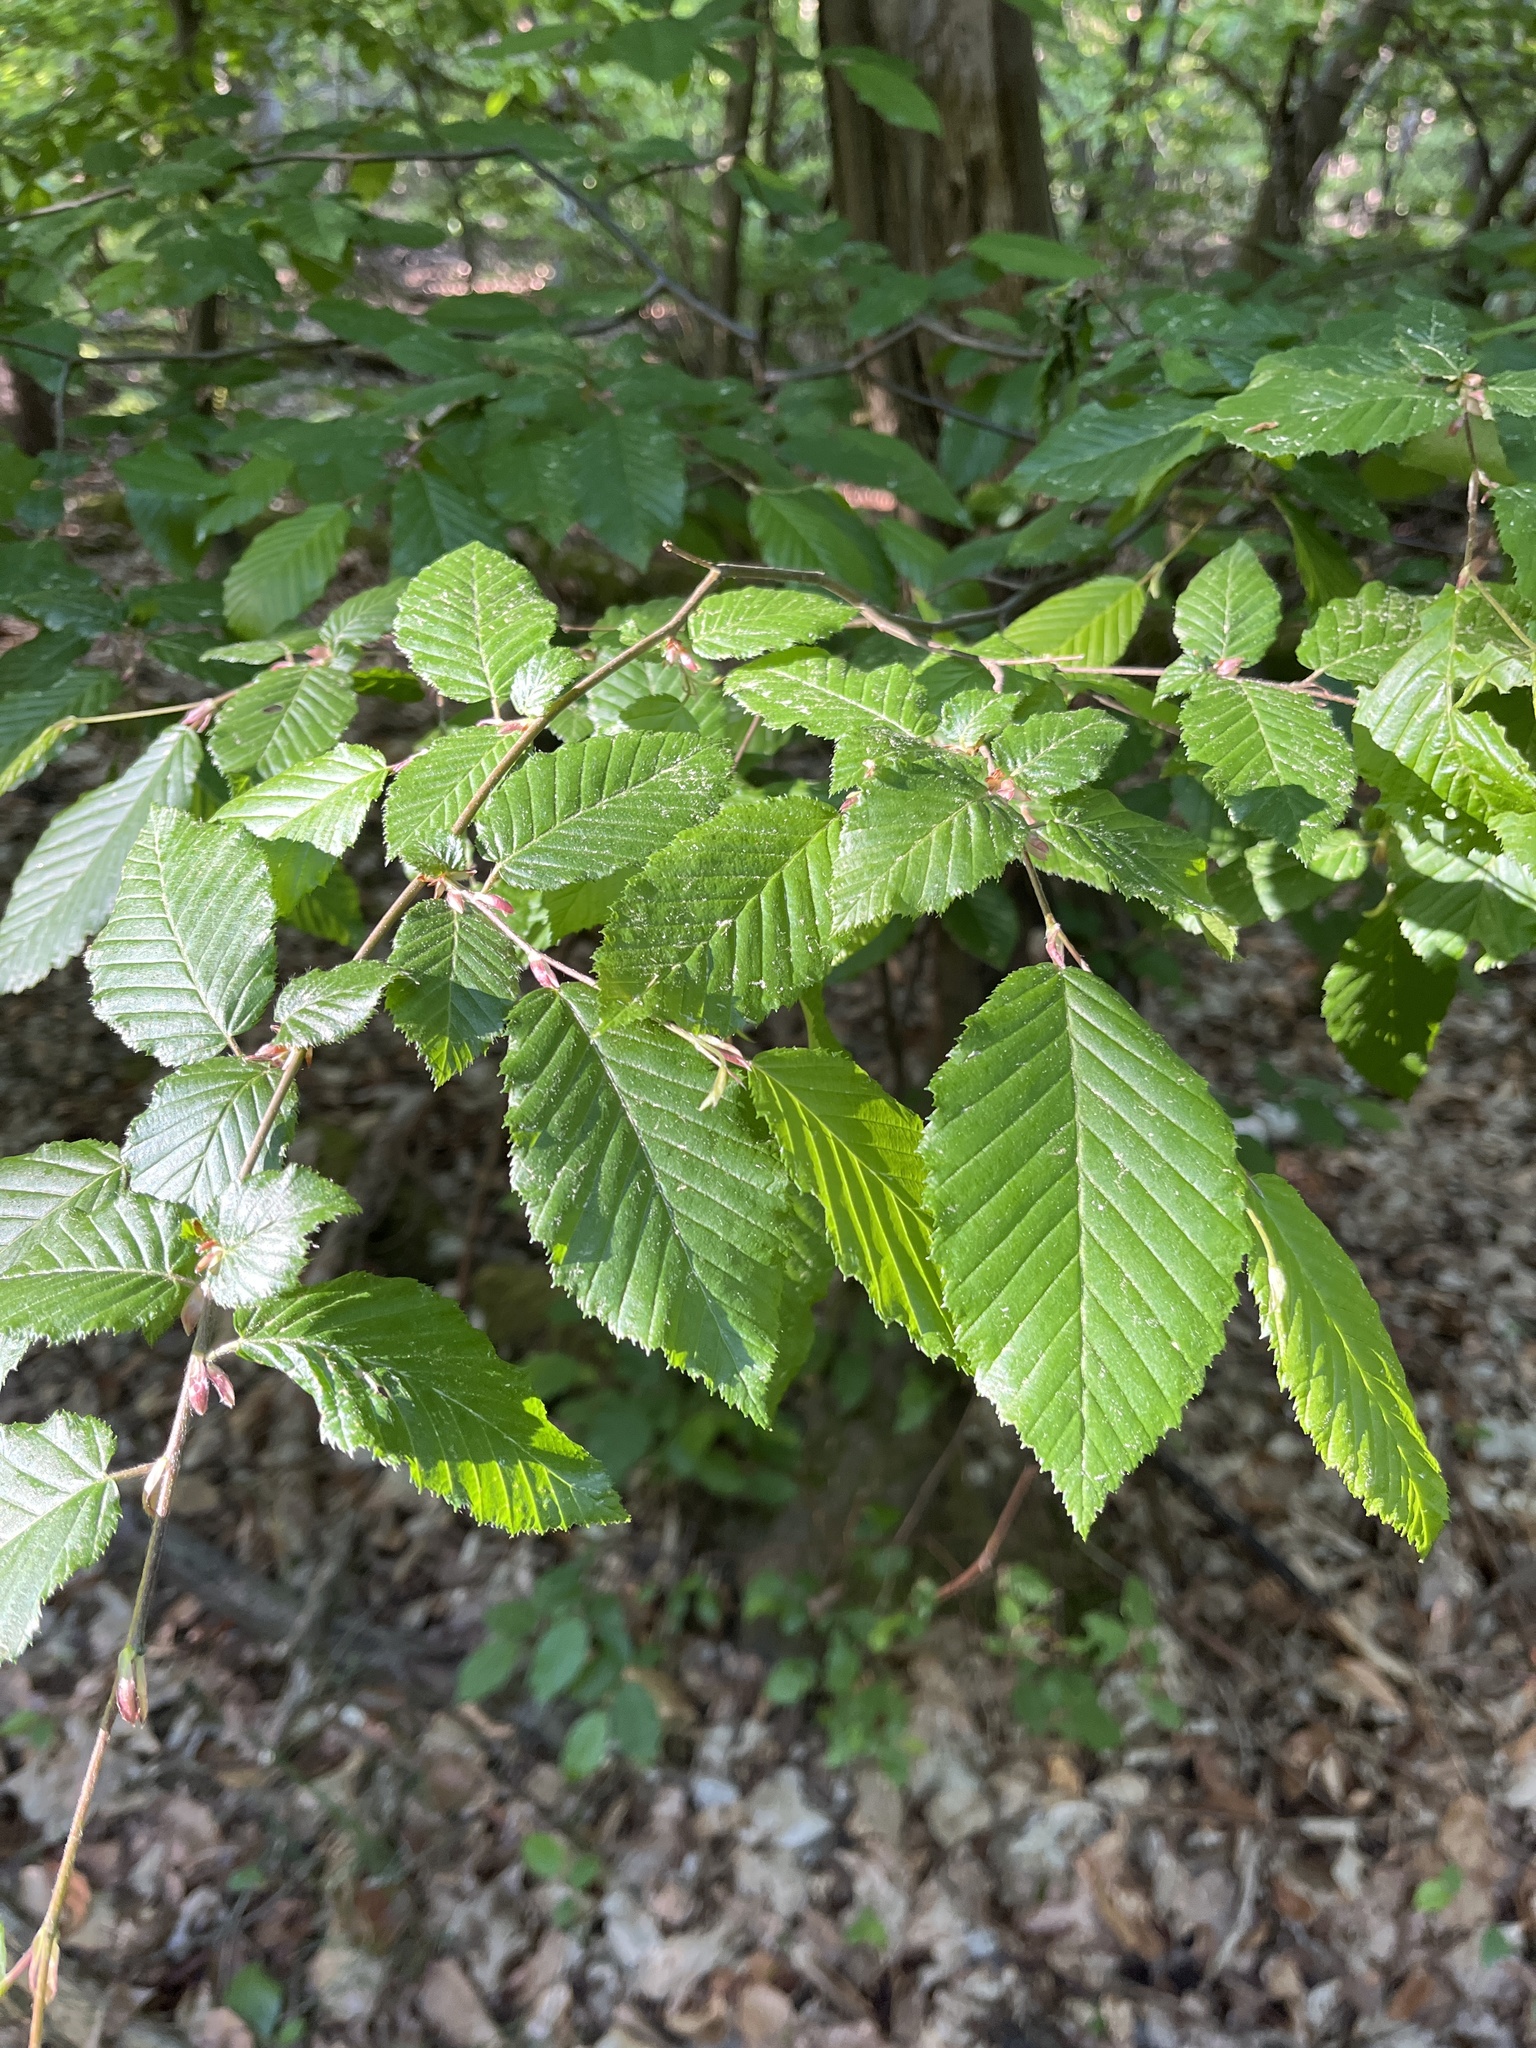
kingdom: Plantae
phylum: Tracheophyta
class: Magnoliopsida
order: Fagales
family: Betulaceae
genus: Carpinus
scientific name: Carpinus betulus
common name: Hornbeam
